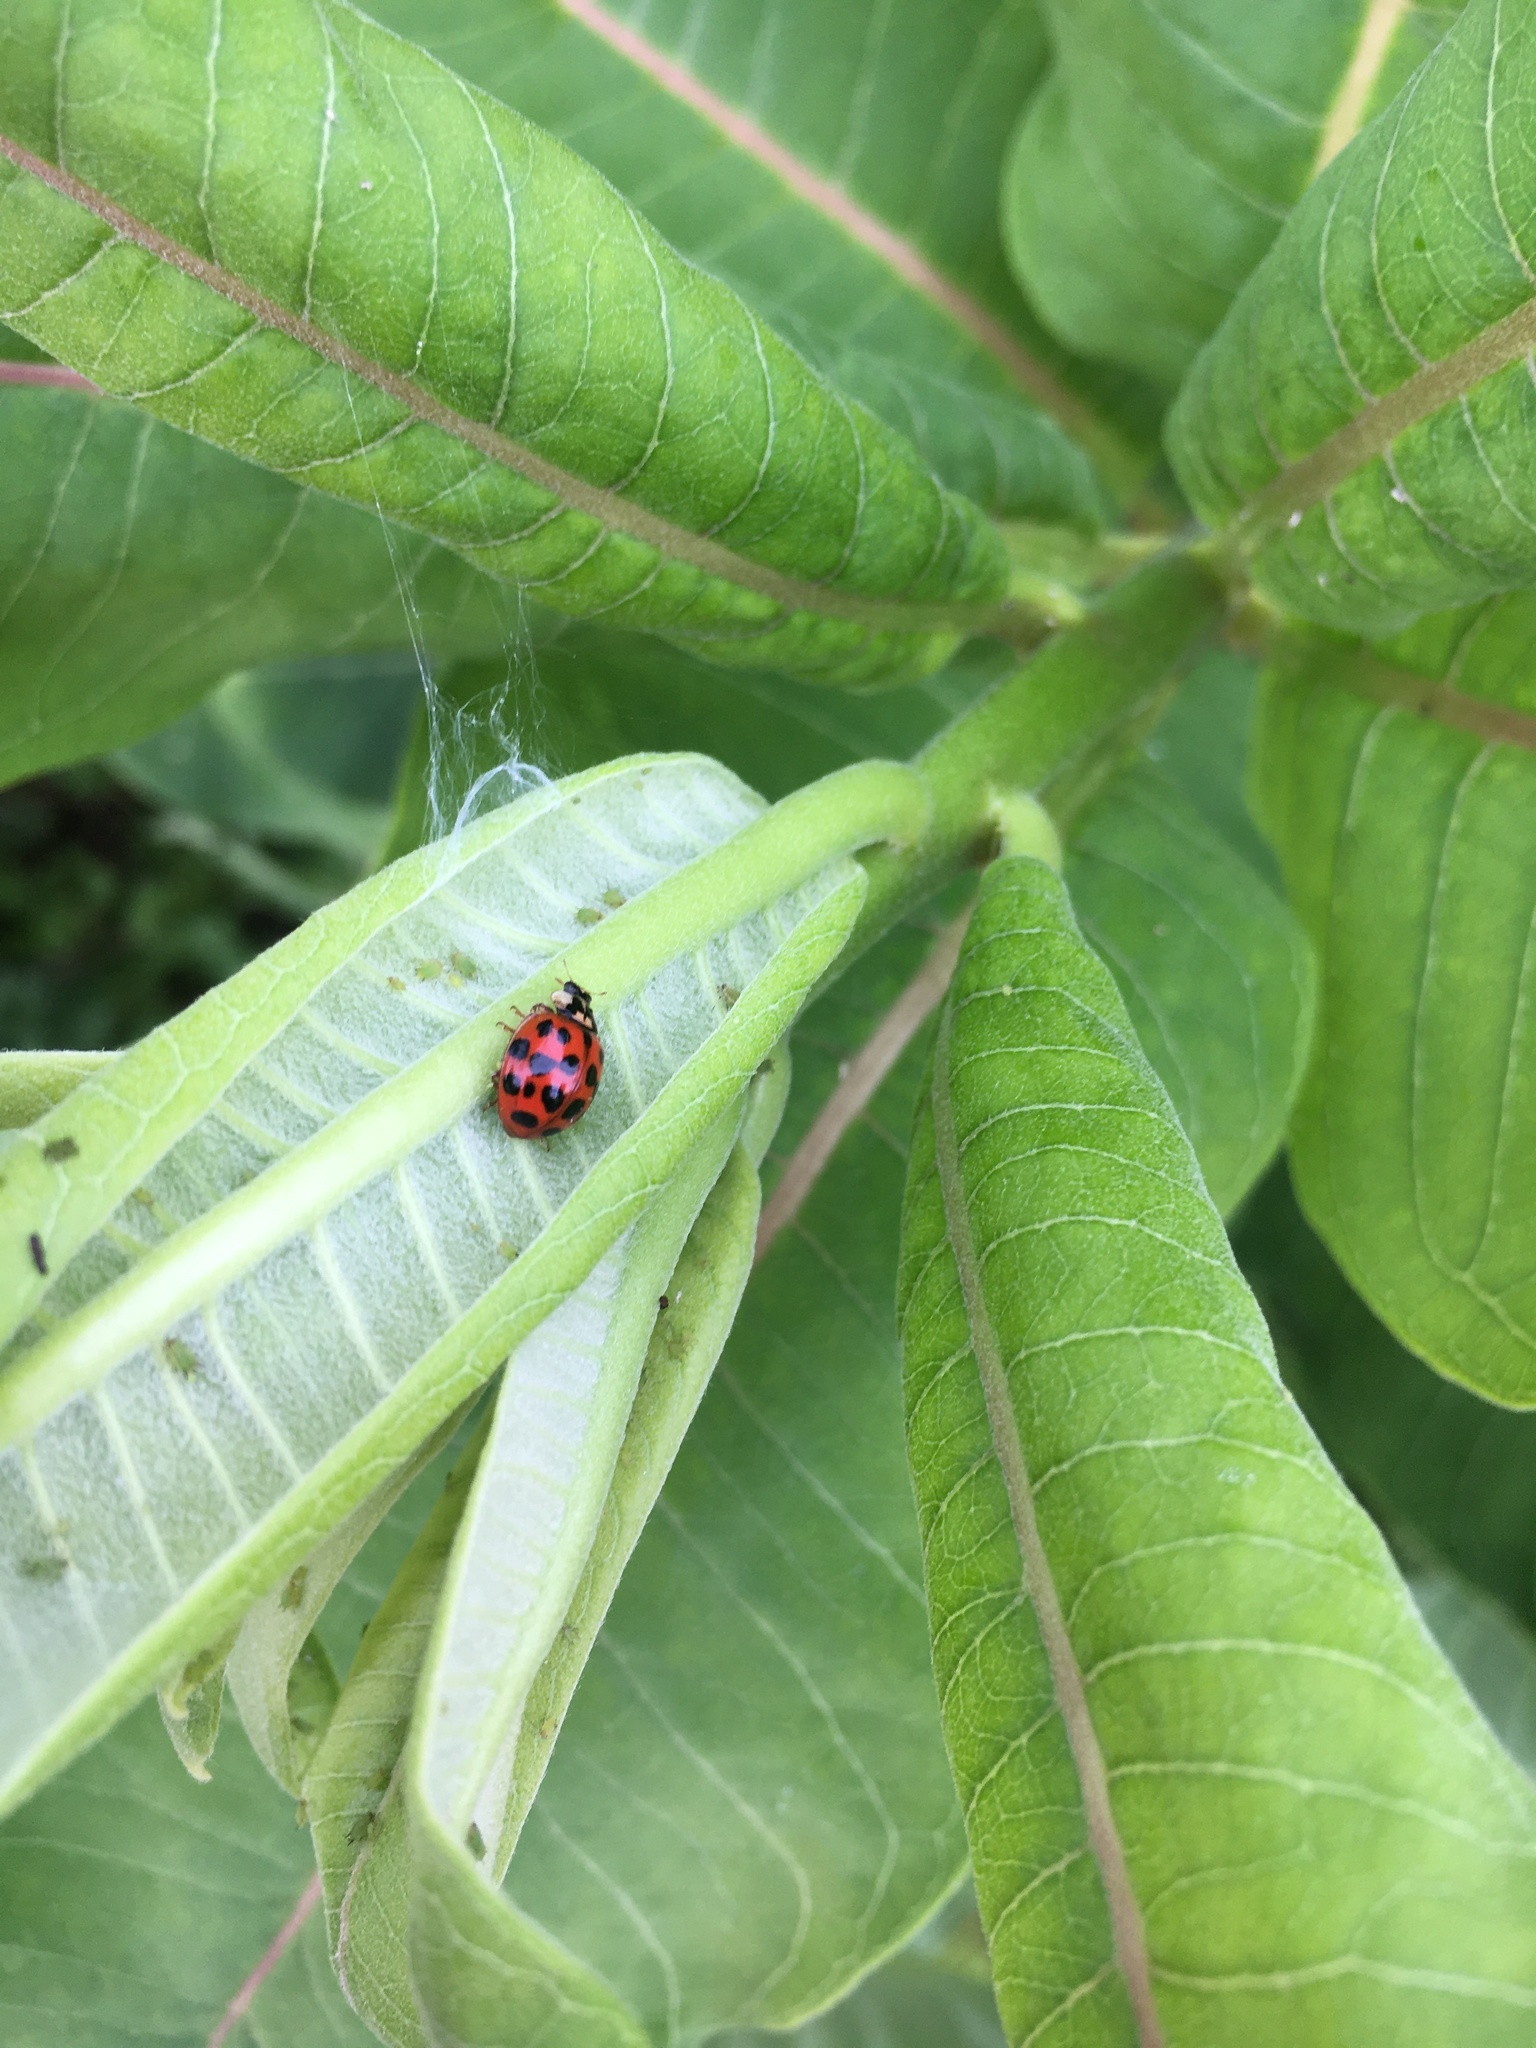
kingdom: Animalia
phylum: Arthropoda
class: Insecta
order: Coleoptera
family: Coccinellidae
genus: Harmonia
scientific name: Harmonia axyridis
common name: Harlequin ladybird
